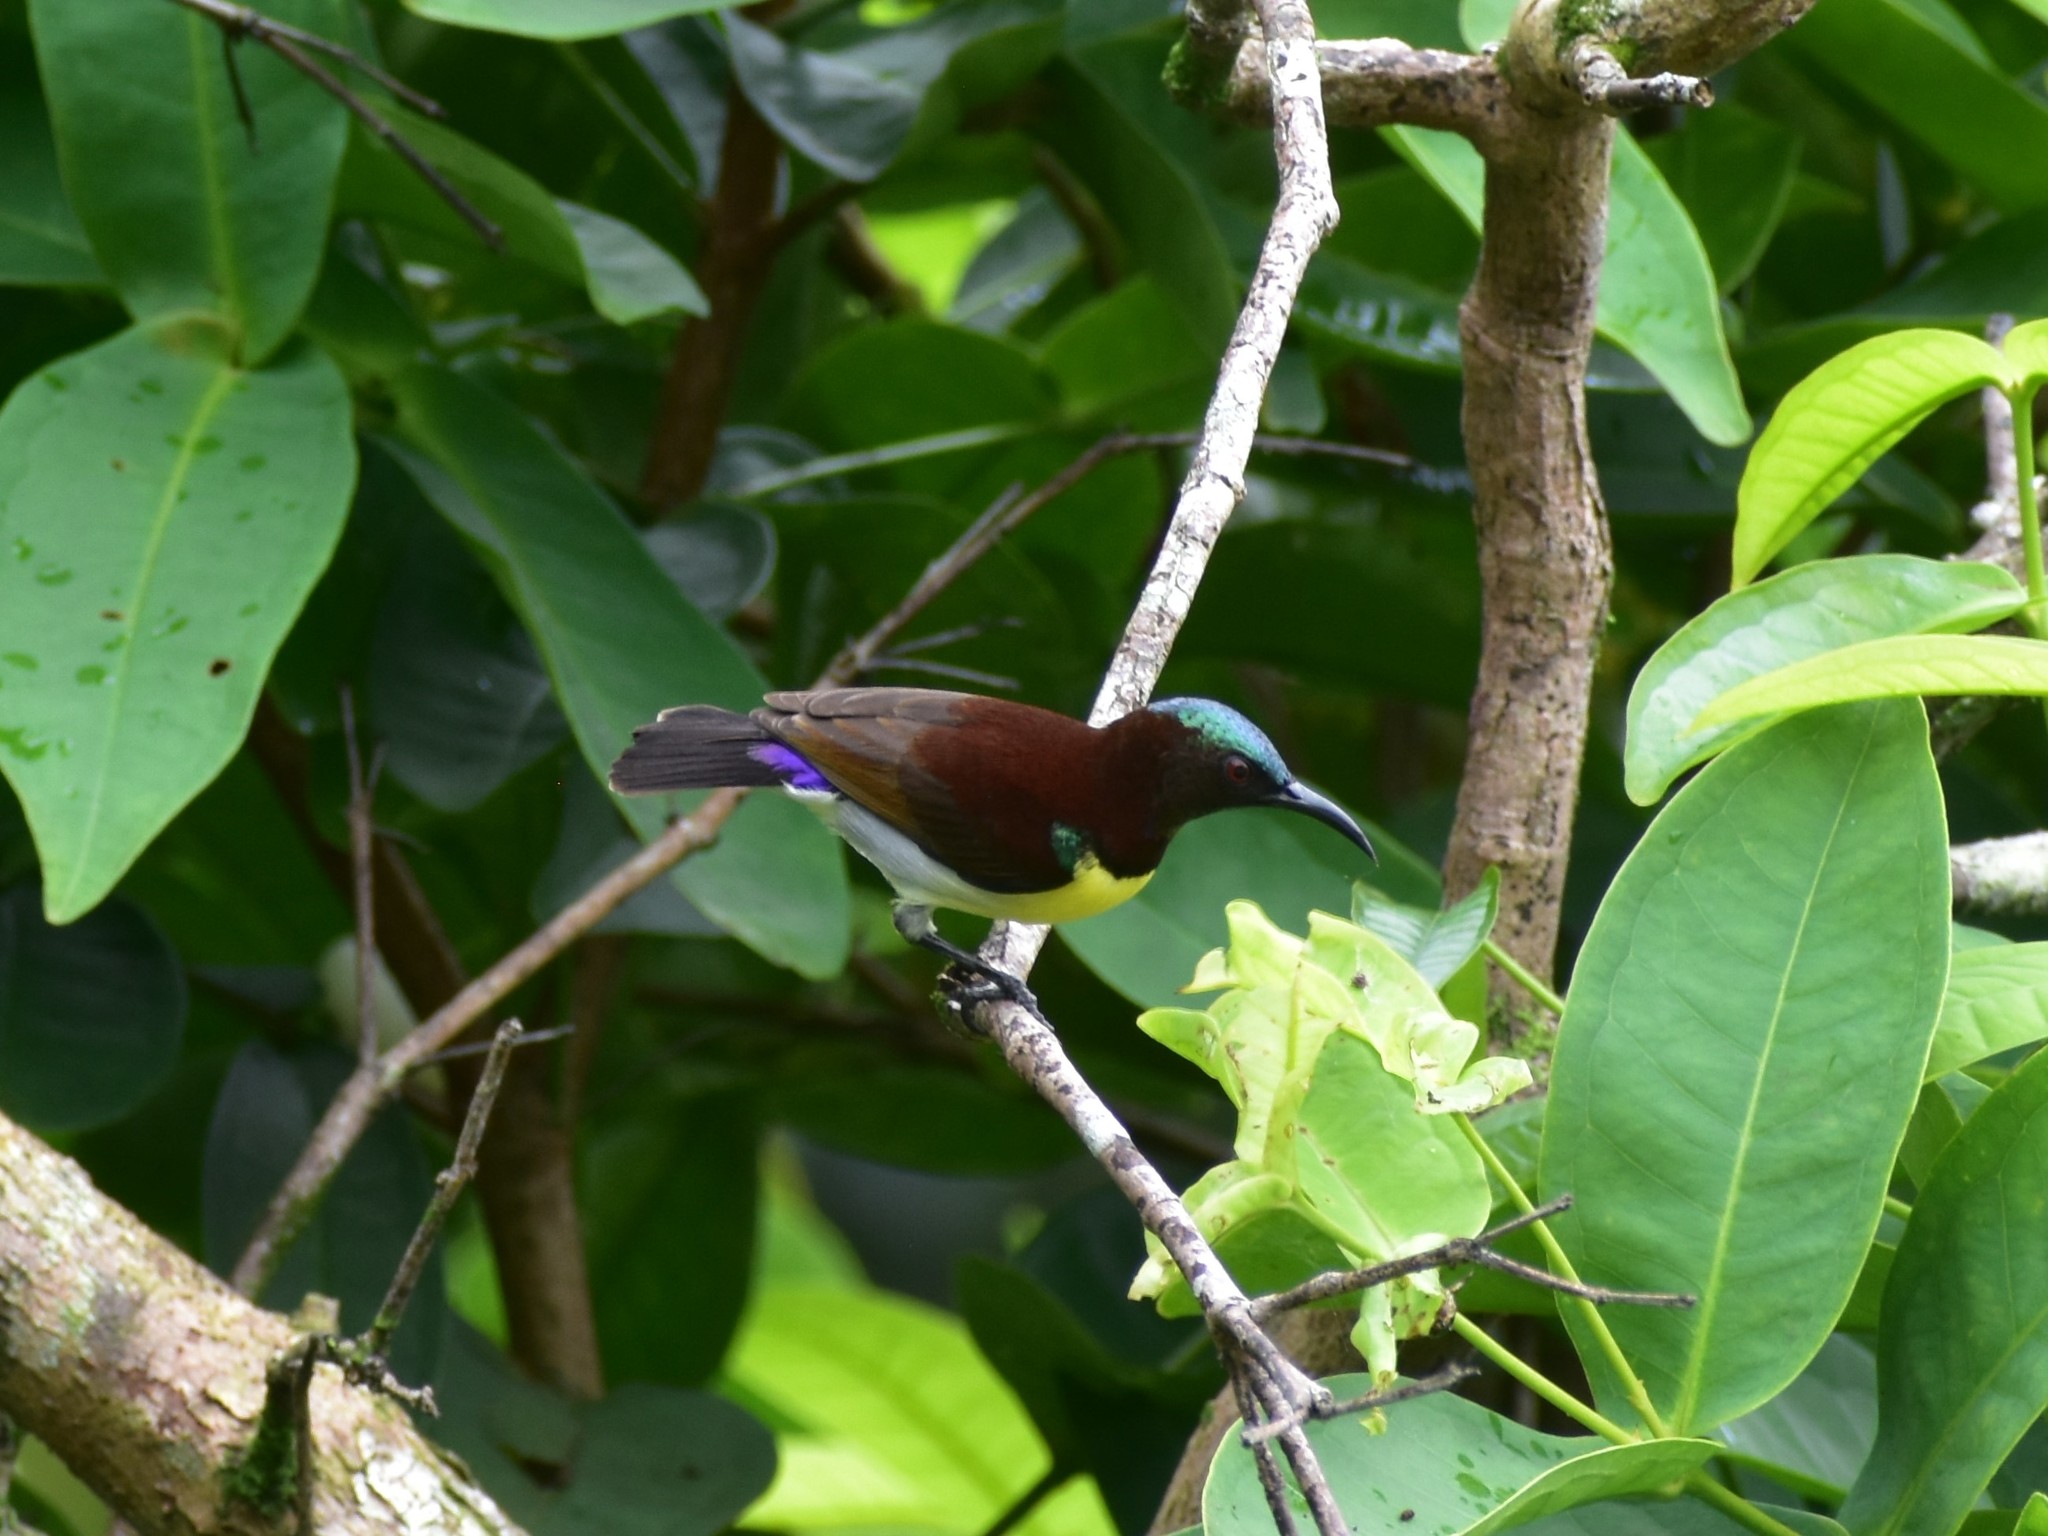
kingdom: Animalia
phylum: Chordata
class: Aves
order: Passeriformes
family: Nectariniidae
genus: Leptocoma
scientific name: Leptocoma zeylonica
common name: Purple-rumped sunbird
